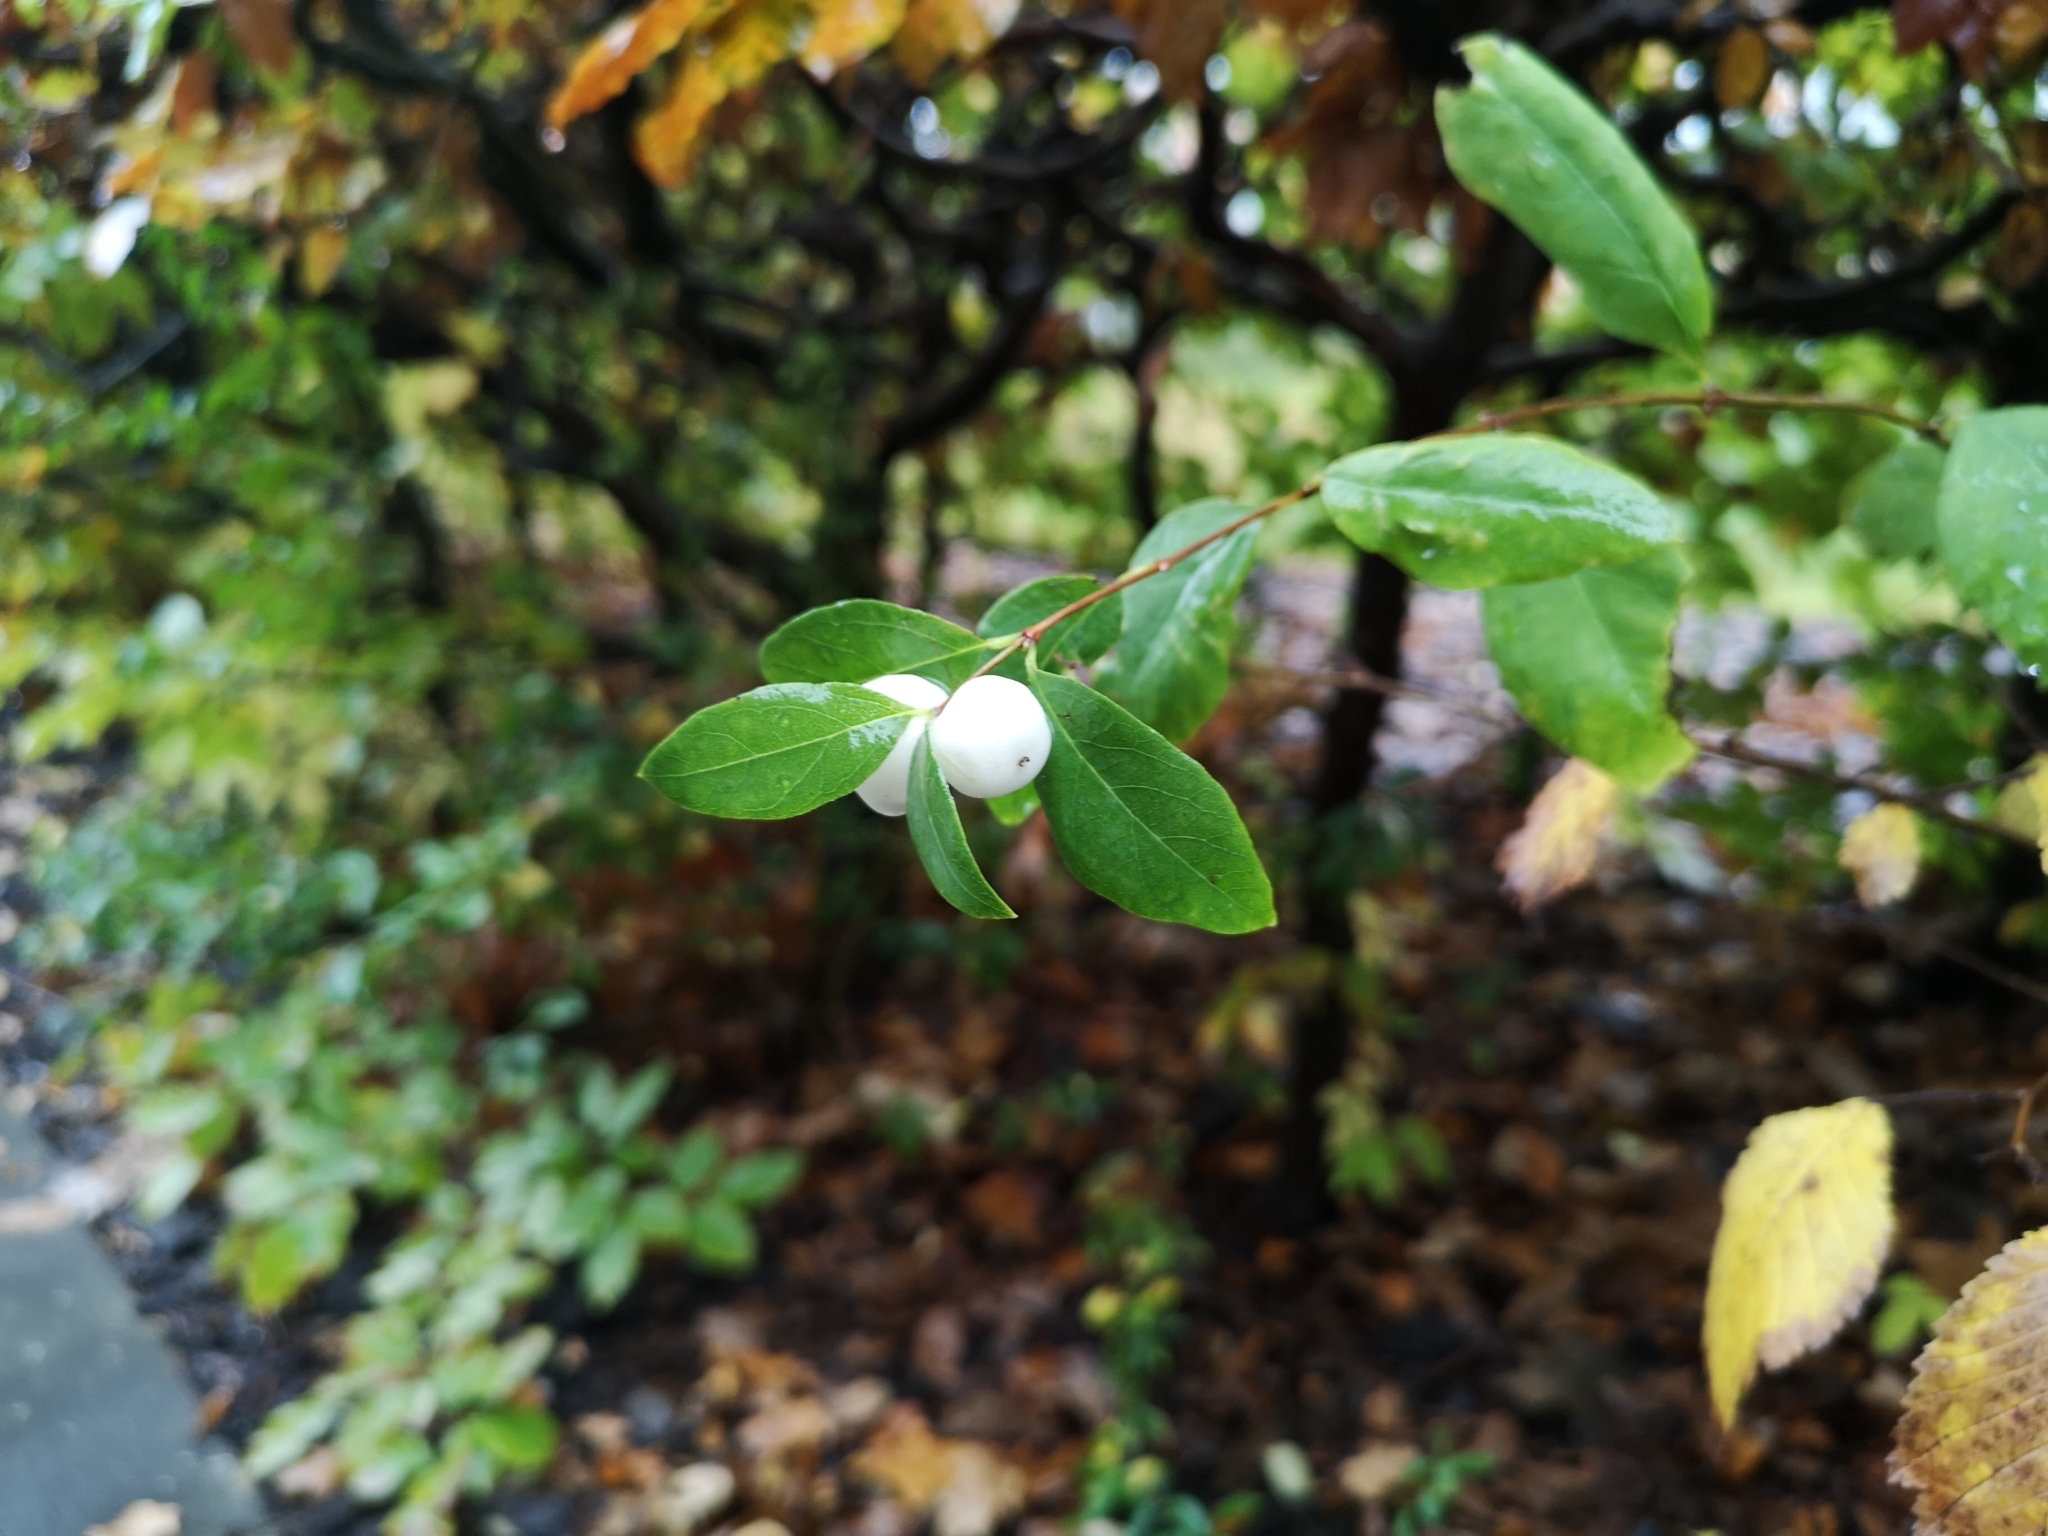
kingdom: Plantae
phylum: Tracheophyta
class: Magnoliopsida
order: Dipsacales
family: Caprifoliaceae
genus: Symphoricarpos
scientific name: Symphoricarpos albus
